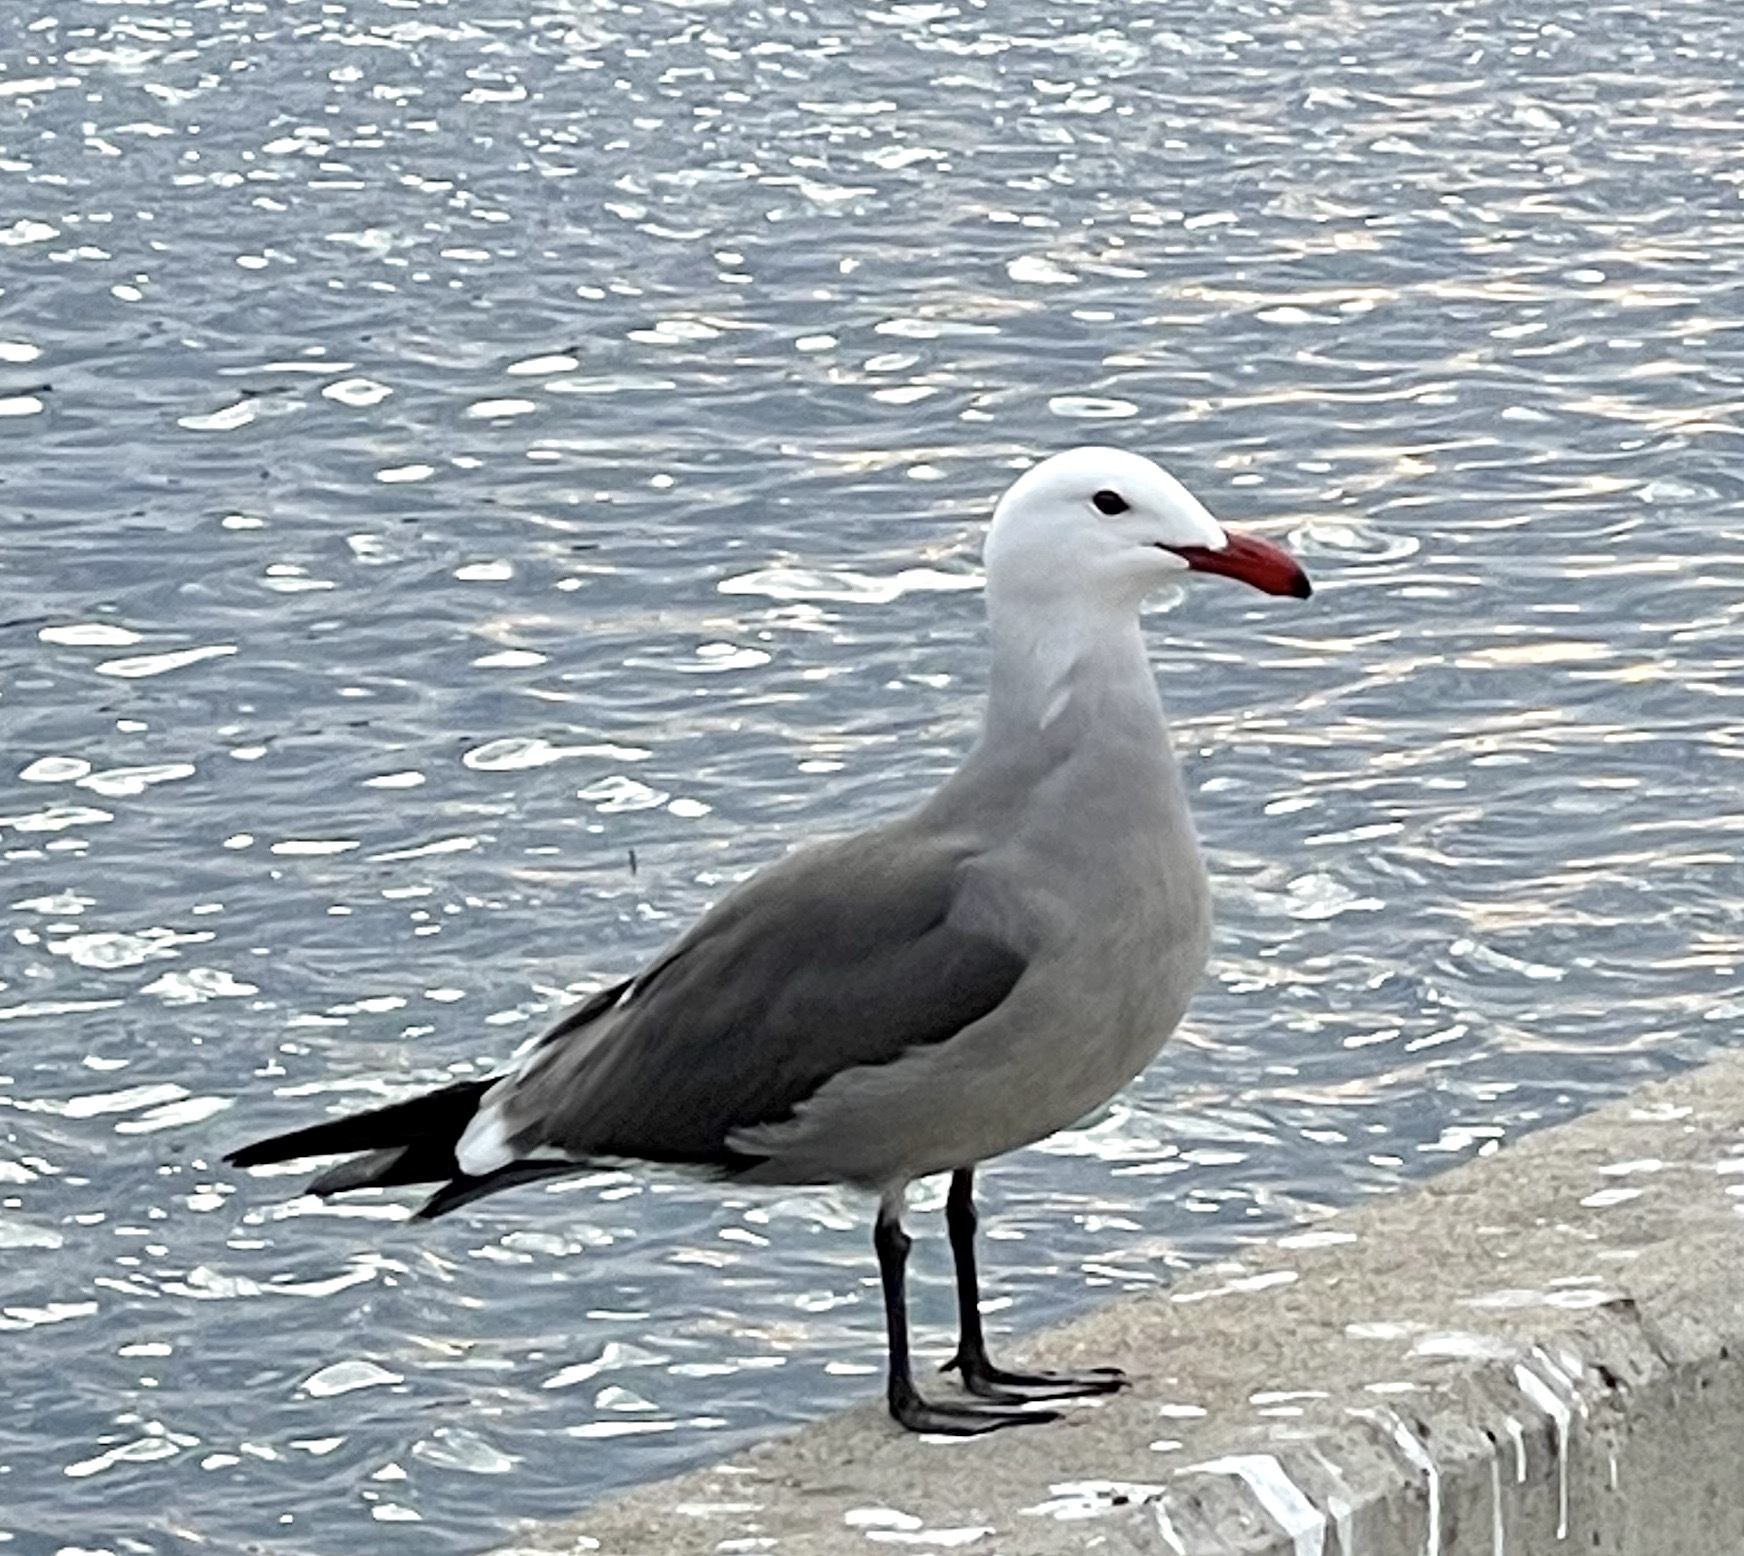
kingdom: Animalia
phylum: Chordata
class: Aves
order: Charadriiformes
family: Laridae
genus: Larus
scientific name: Larus heermanni
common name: Heermann's gull
